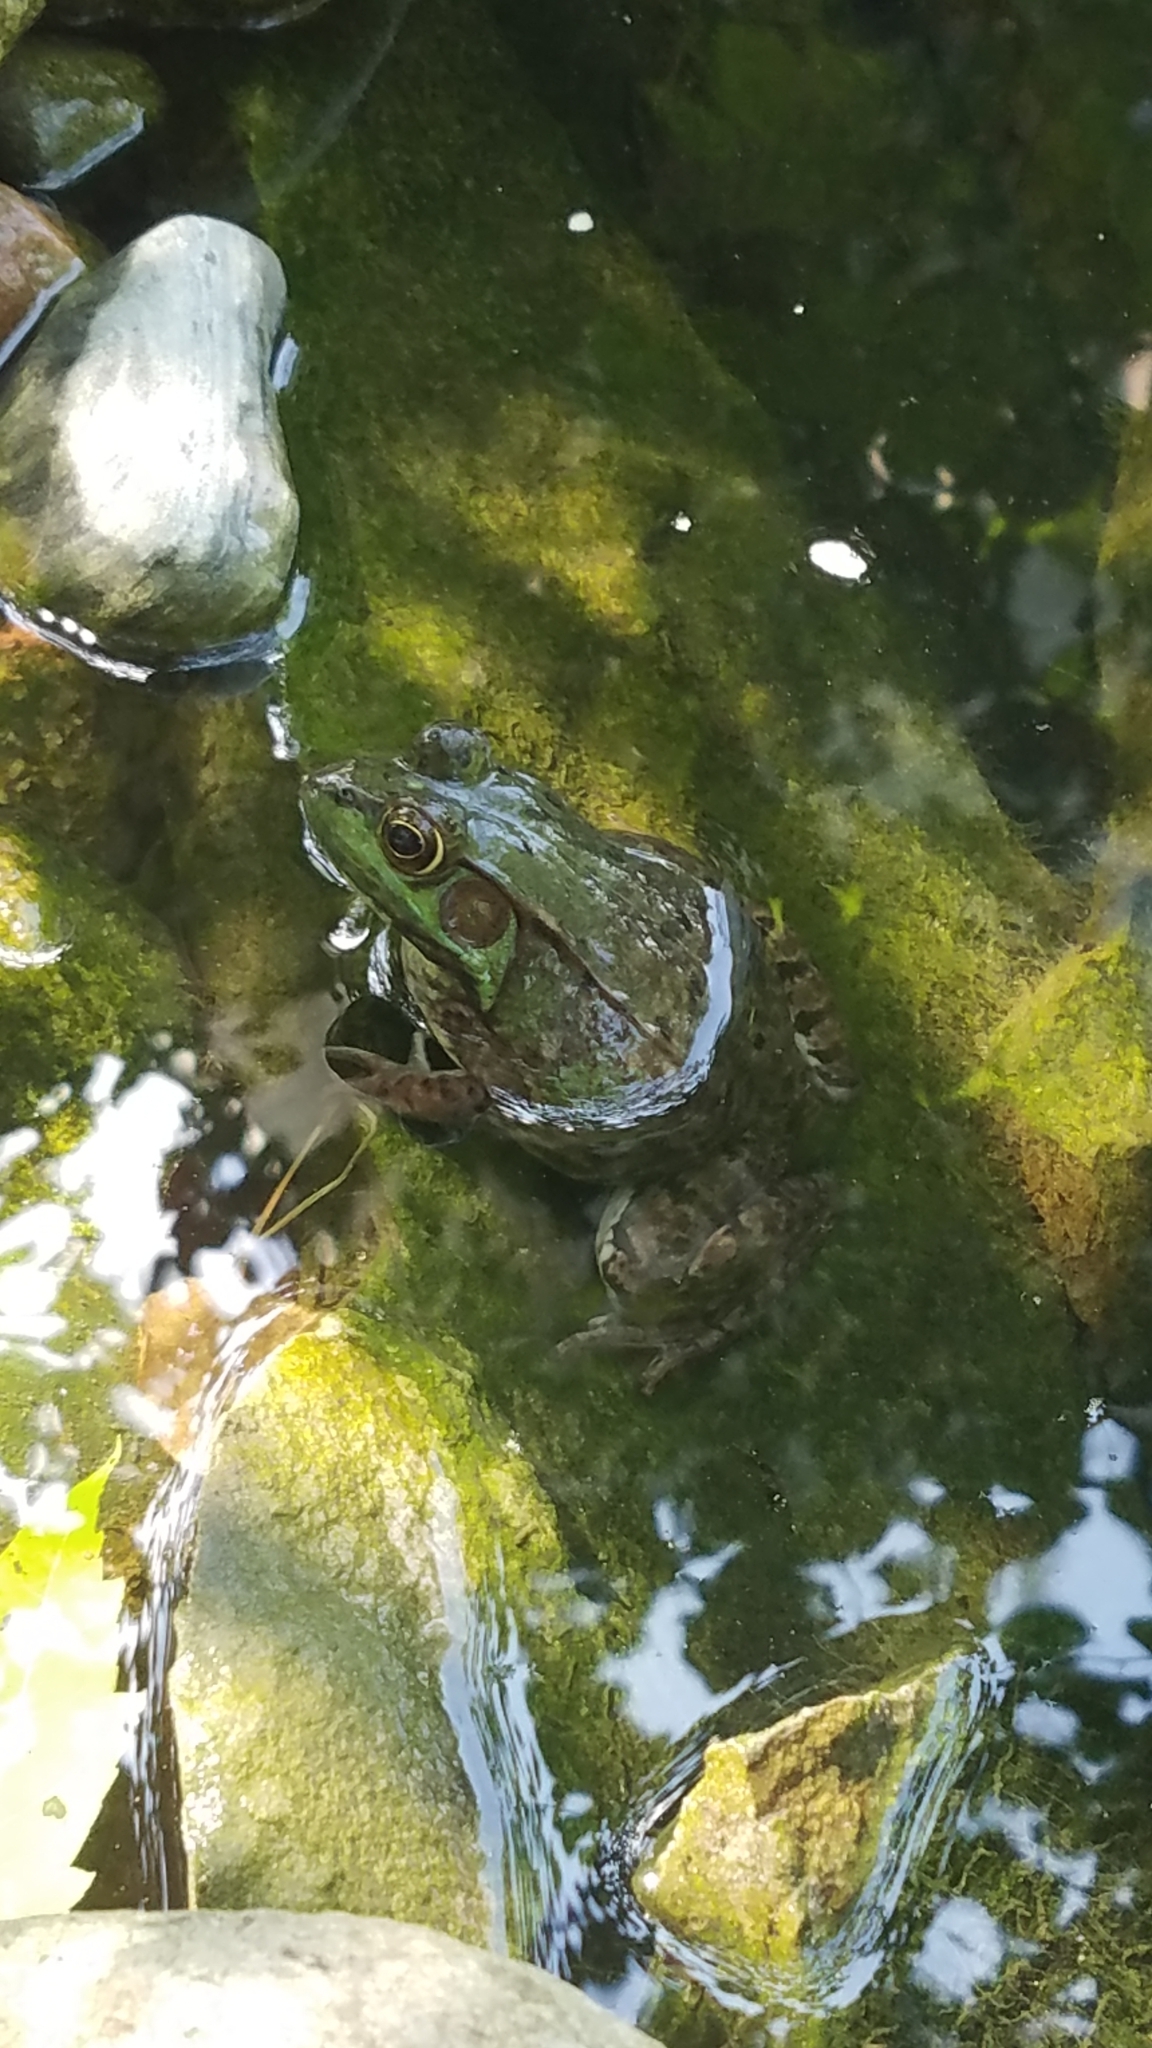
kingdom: Animalia
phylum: Chordata
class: Amphibia
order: Anura
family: Ranidae
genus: Lithobates
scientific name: Lithobates clamitans
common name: Green frog
